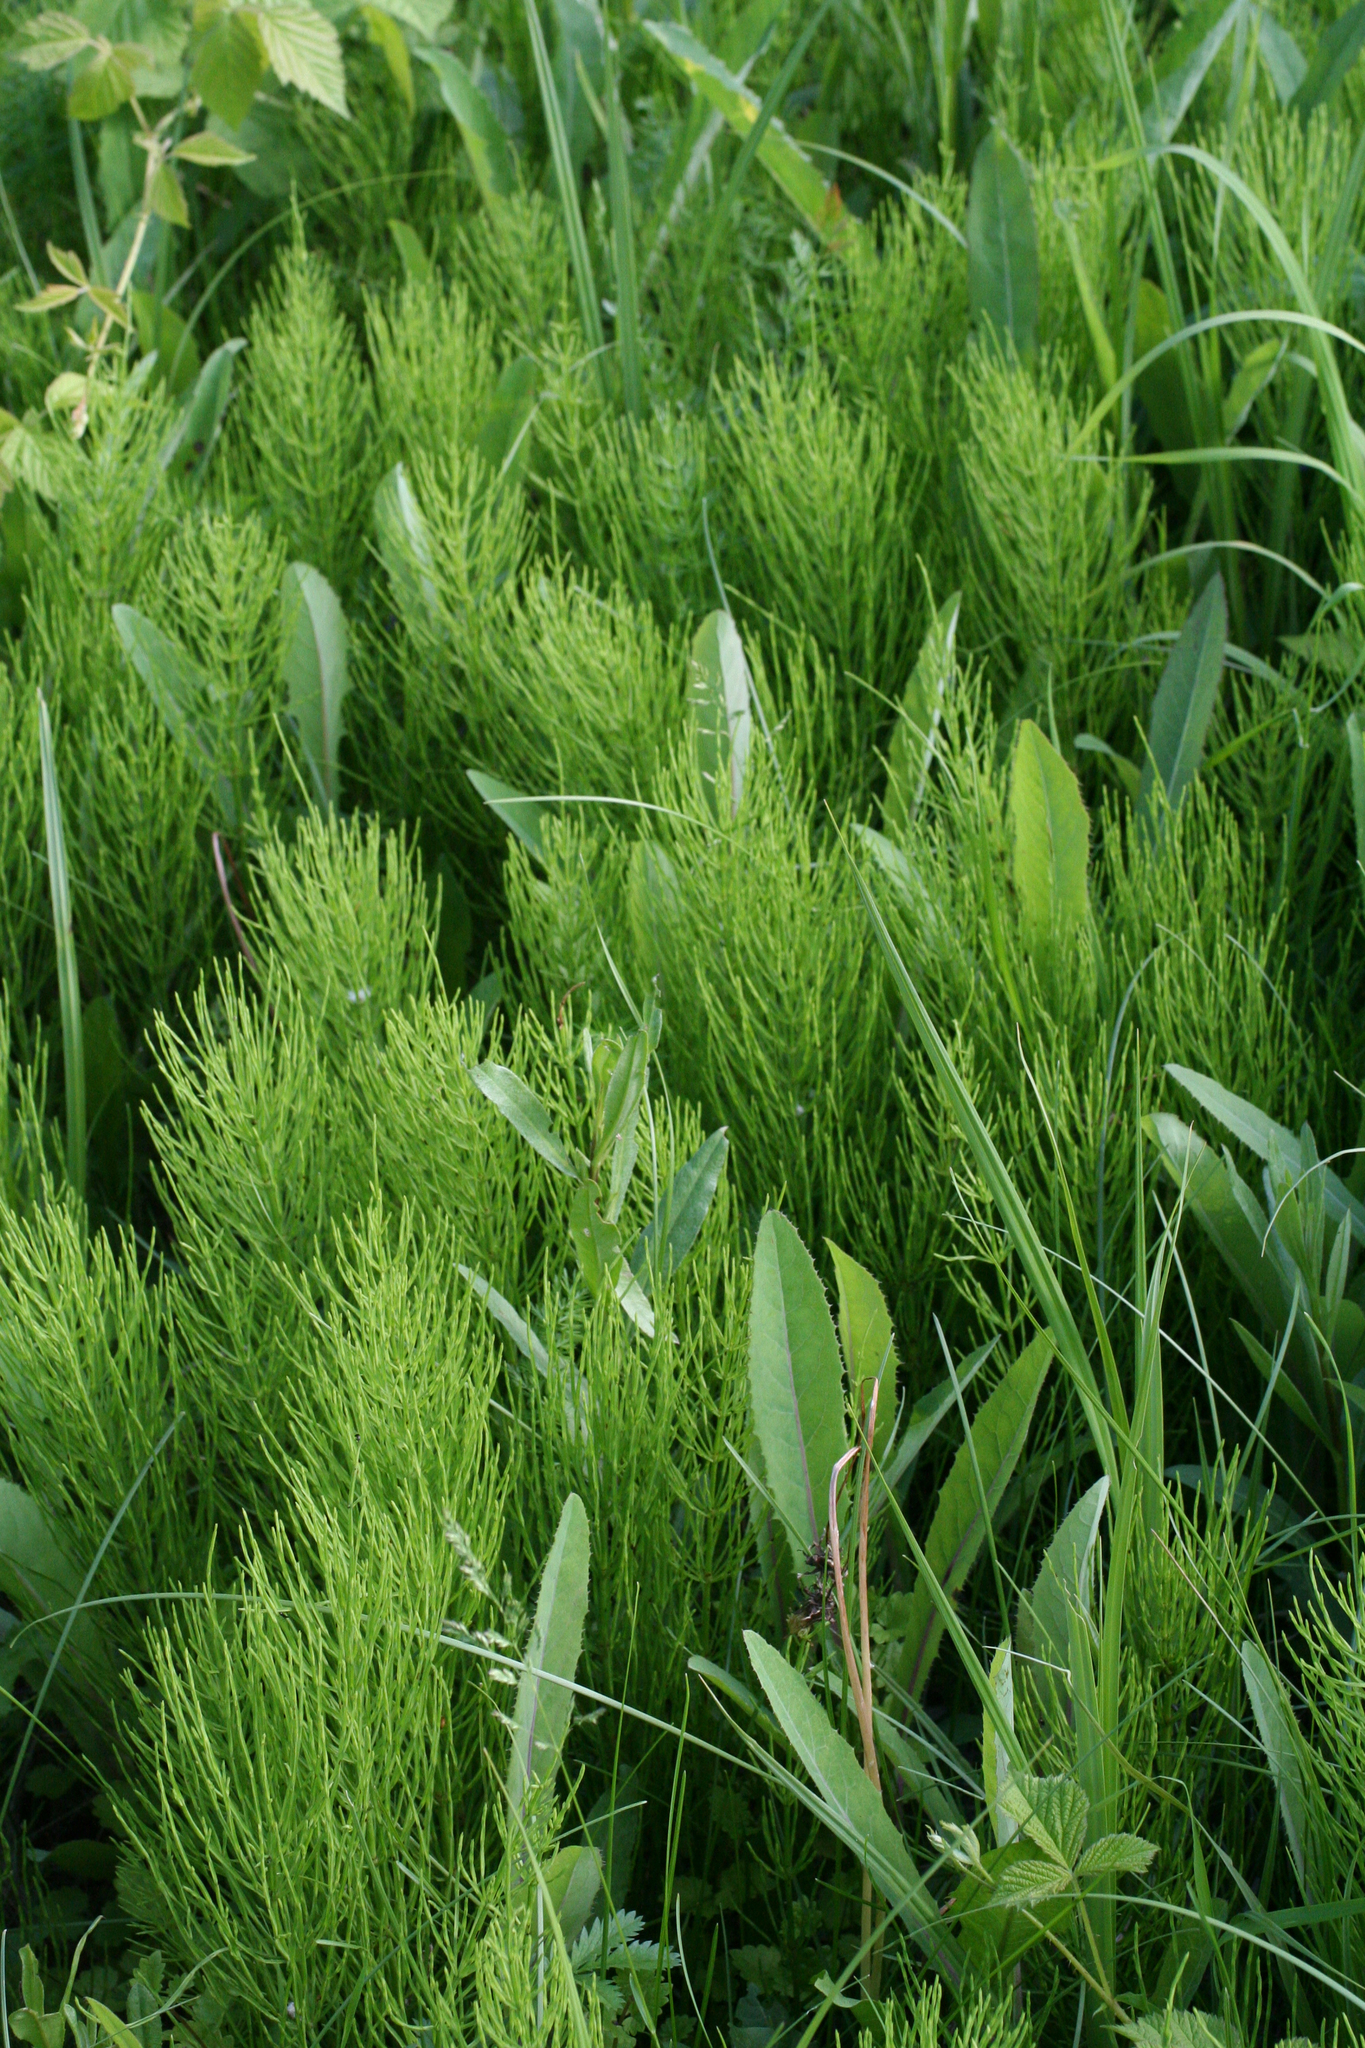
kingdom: Plantae
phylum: Tracheophyta
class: Polypodiopsida
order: Equisetales
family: Equisetaceae
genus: Equisetum
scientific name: Equisetum arvense
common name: Field horsetail
